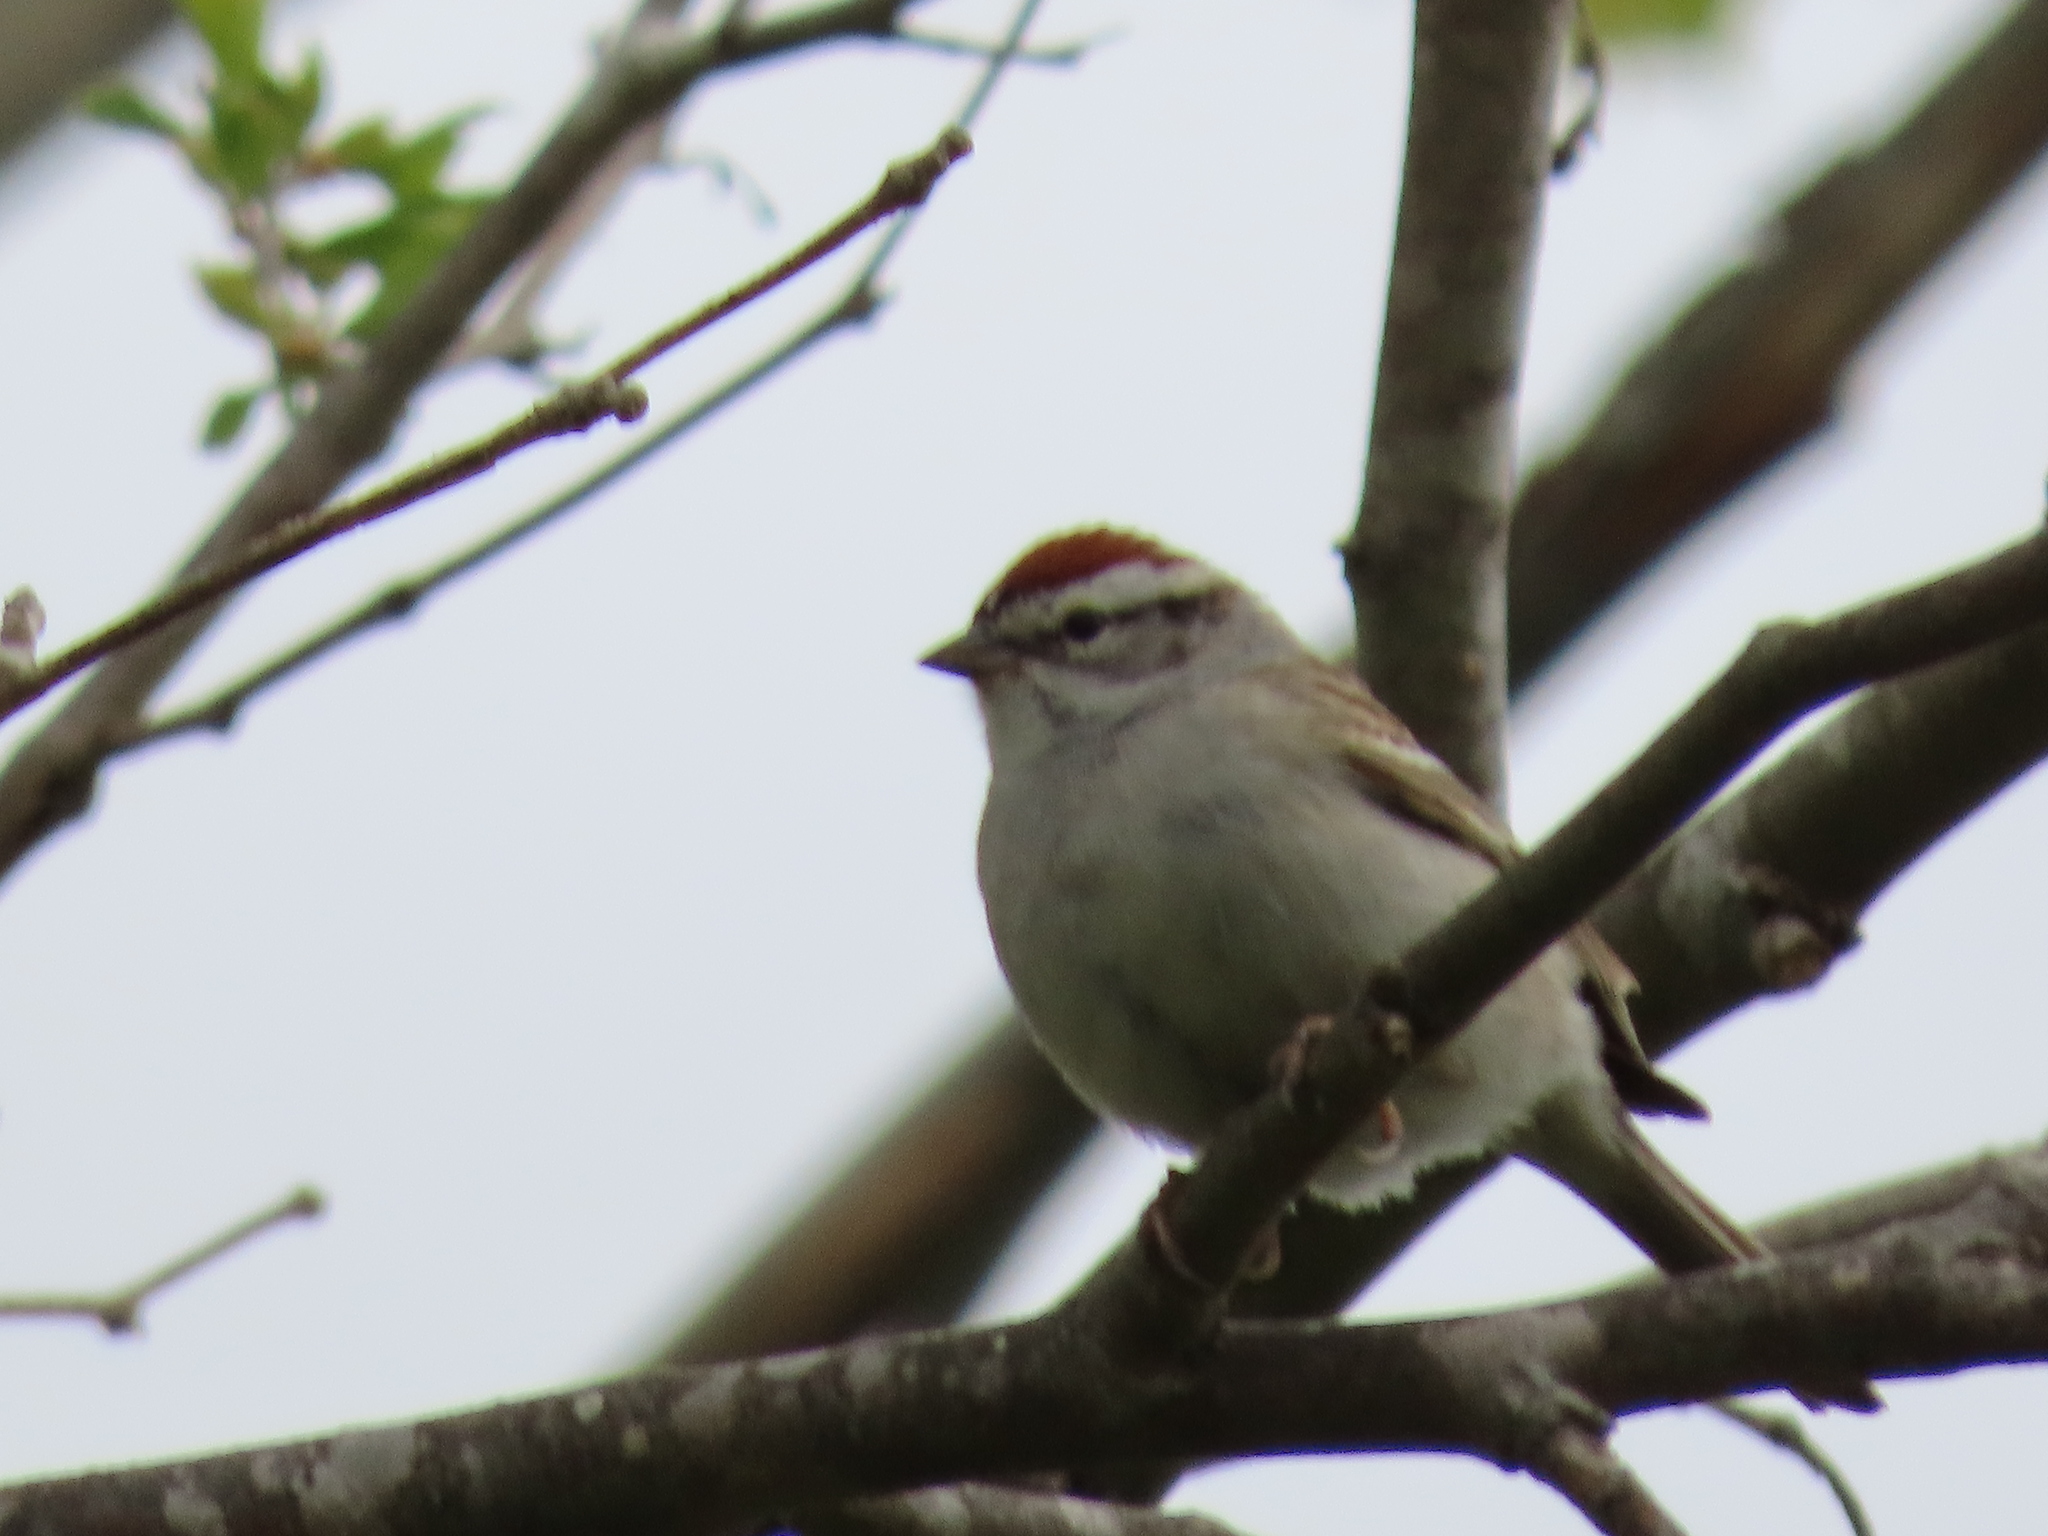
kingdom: Animalia
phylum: Chordata
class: Aves
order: Passeriformes
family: Passerellidae
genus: Spizella
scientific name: Spizella passerina
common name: Chipping sparrow
